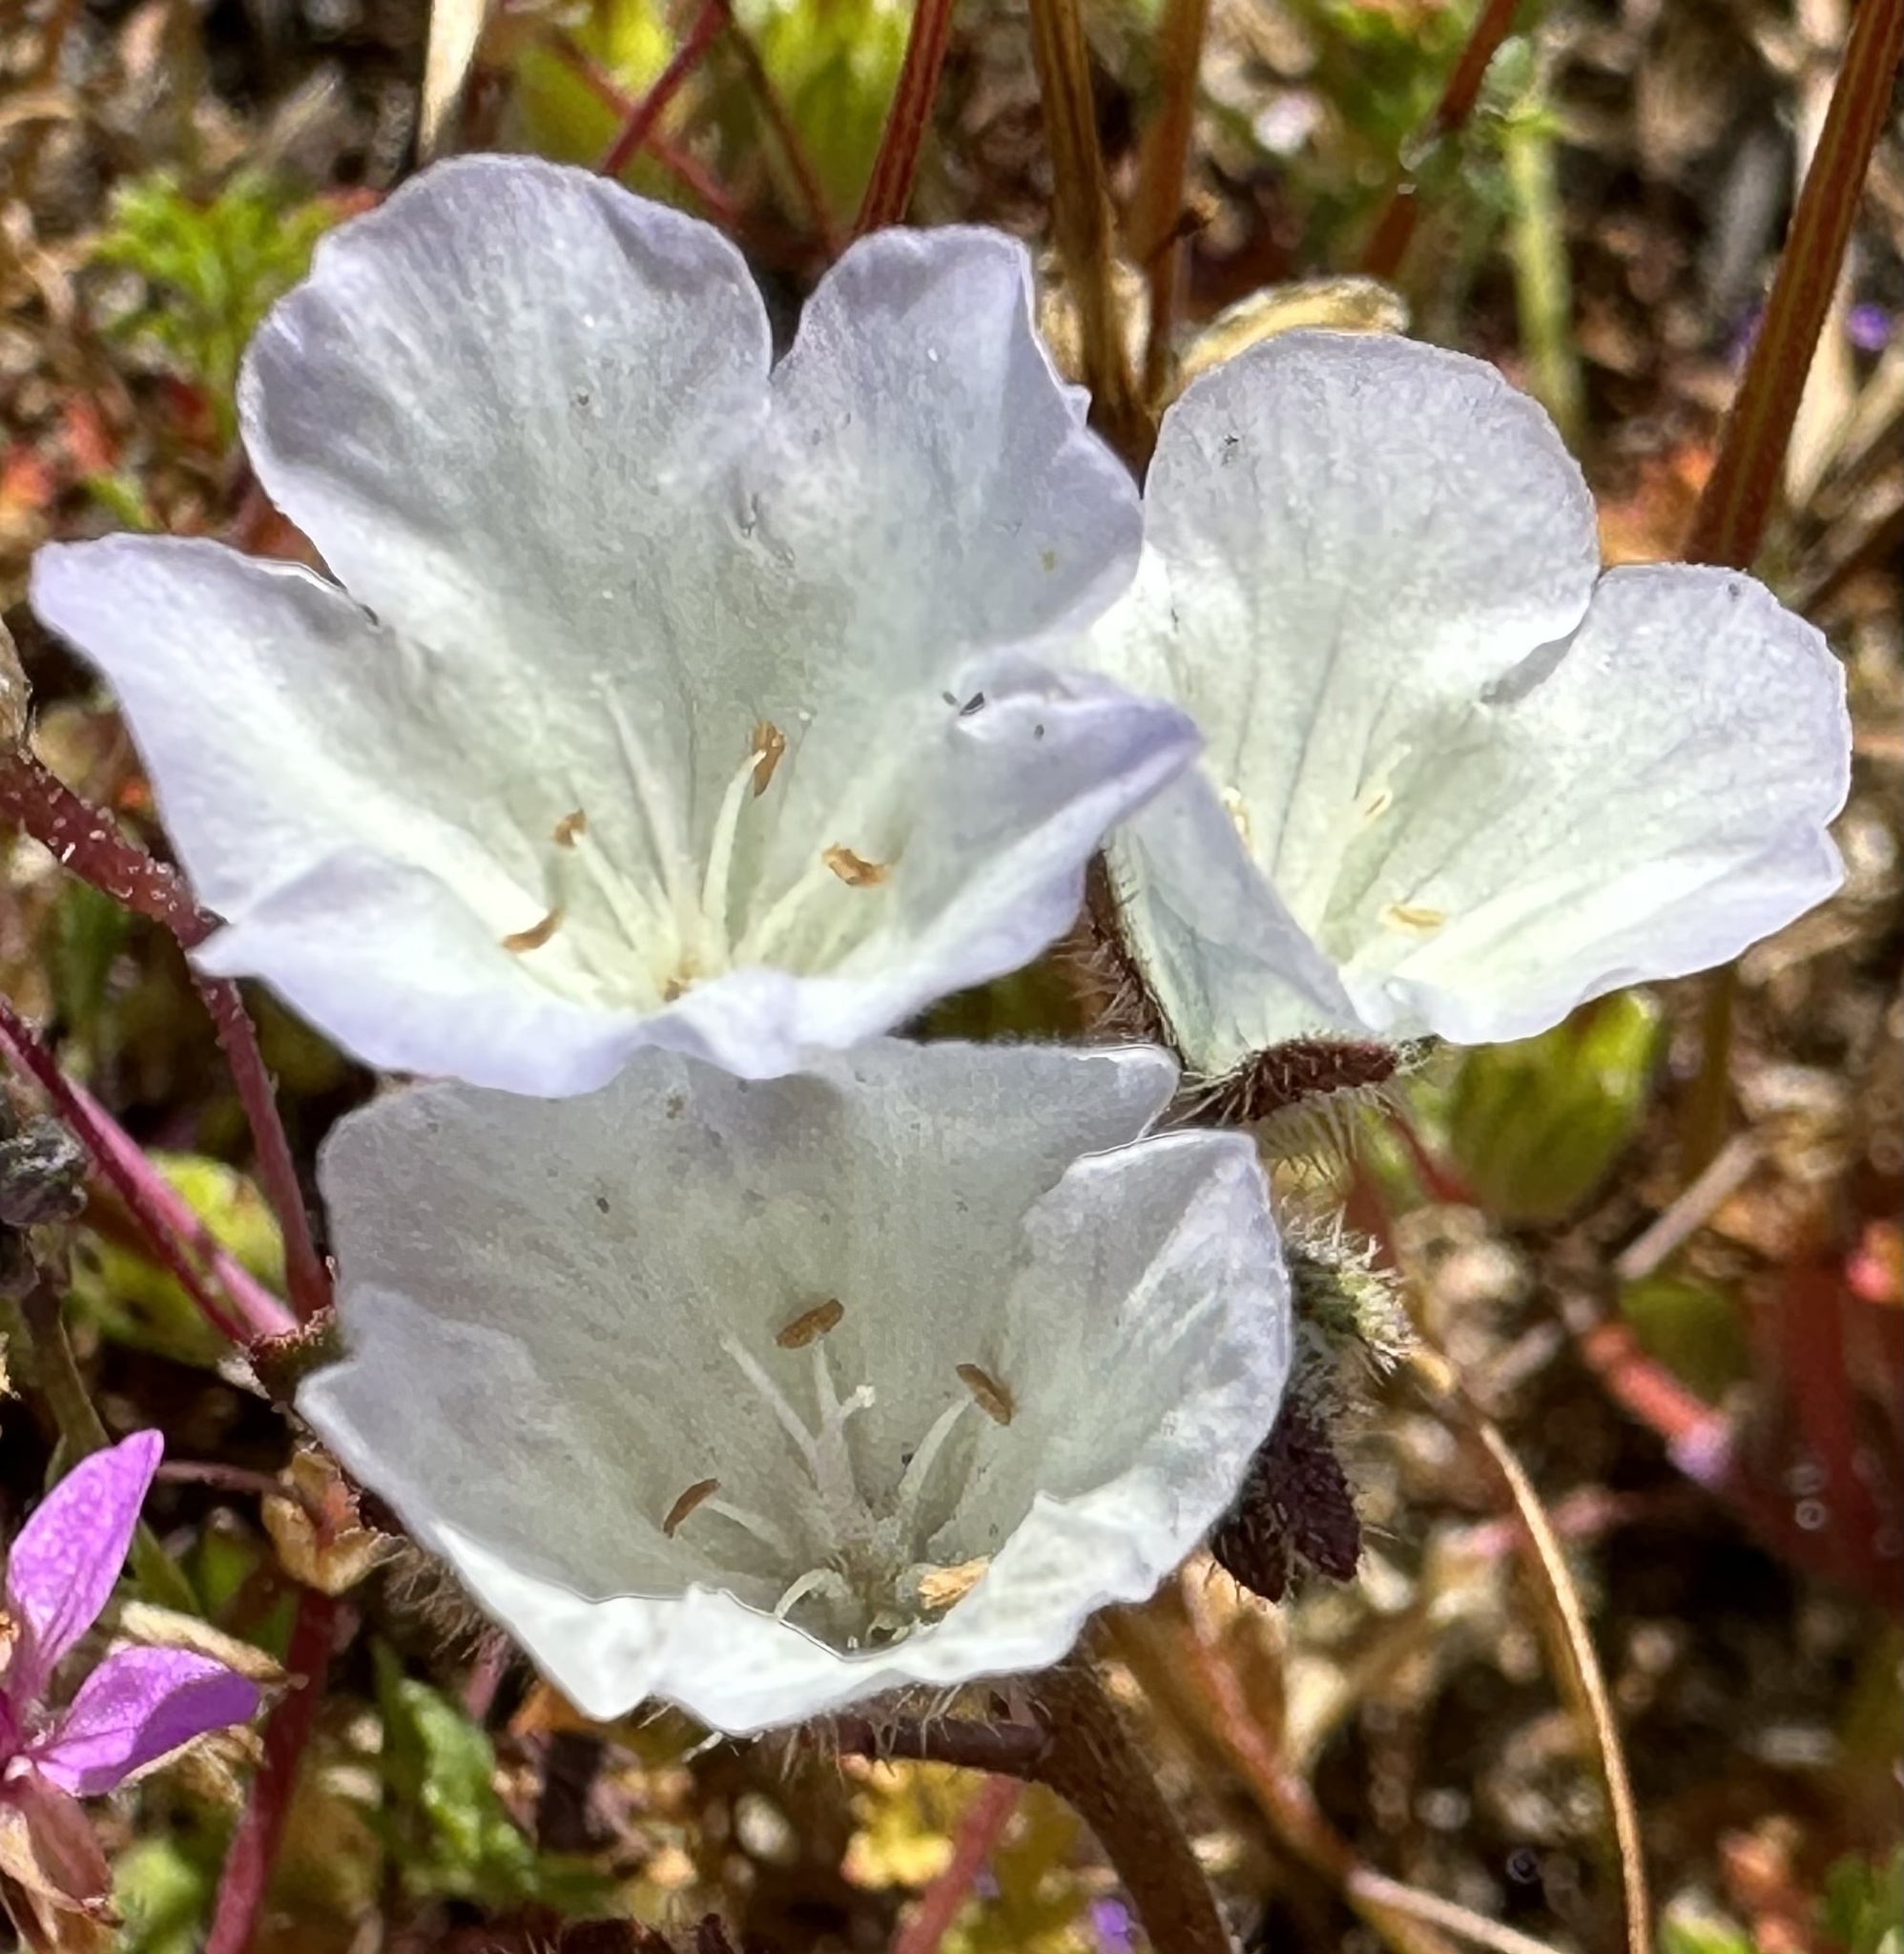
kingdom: Plantae
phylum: Tracheophyta
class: Magnoliopsida
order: Boraginales
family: Hydrophyllaceae
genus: Phacelia
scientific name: Phacelia douglasii
